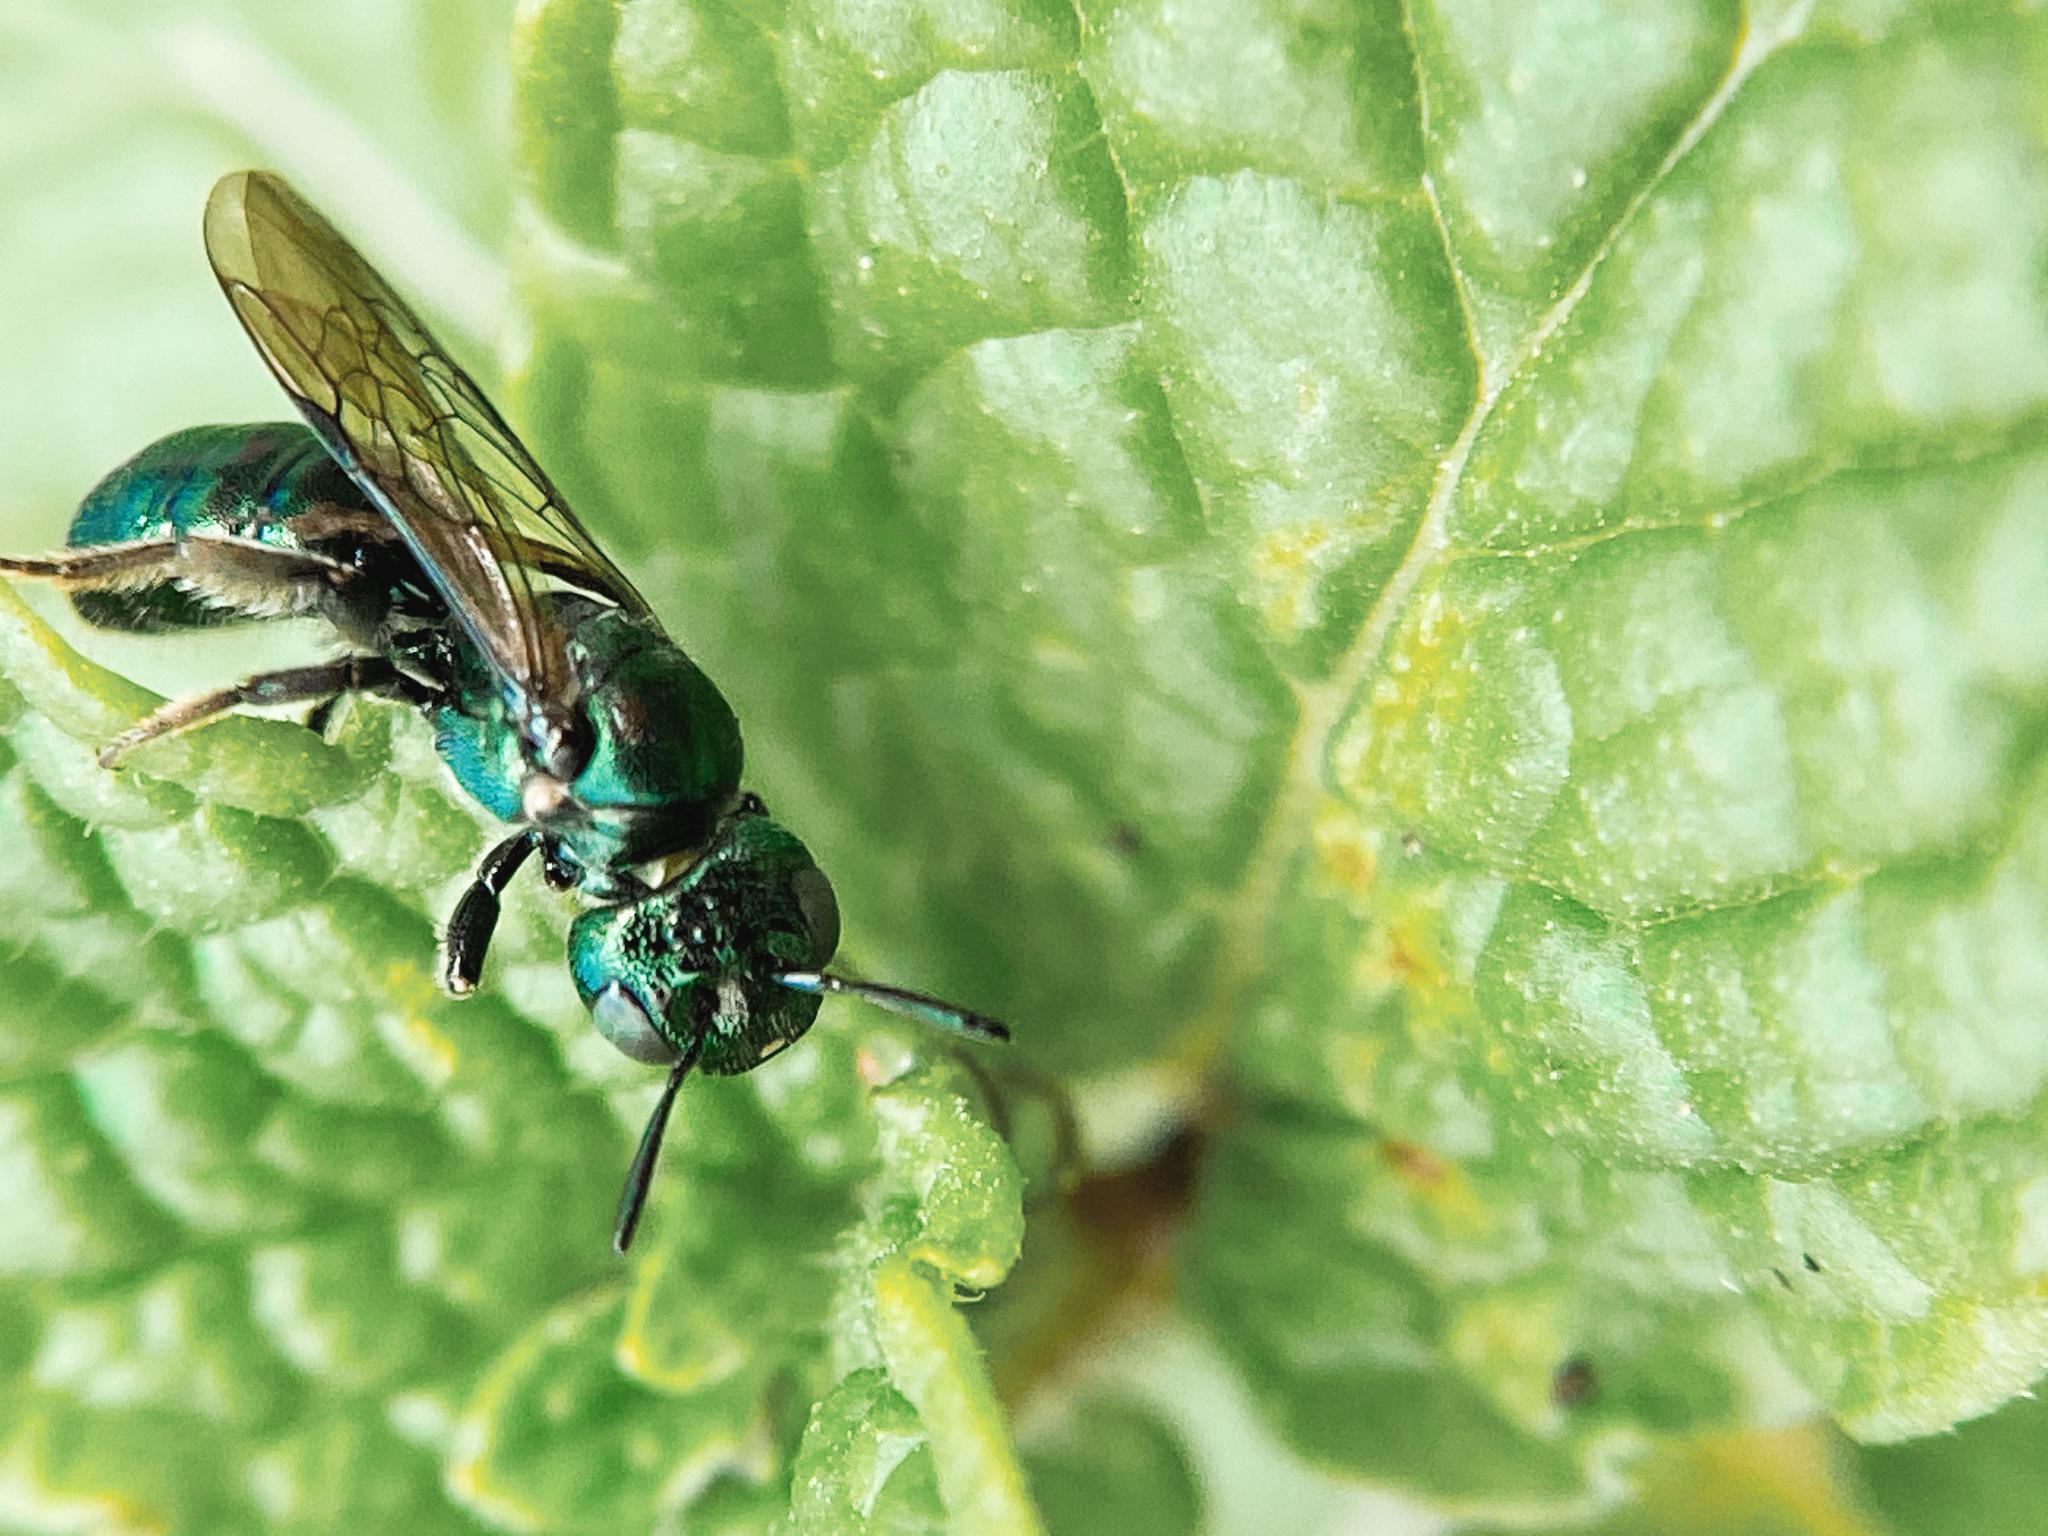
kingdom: Animalia
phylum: Arthropoda
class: Insecta
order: Hymenoptera
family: Apidae
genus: Ceratina
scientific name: Ceratina calcarata
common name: Spurred carpenter bee
